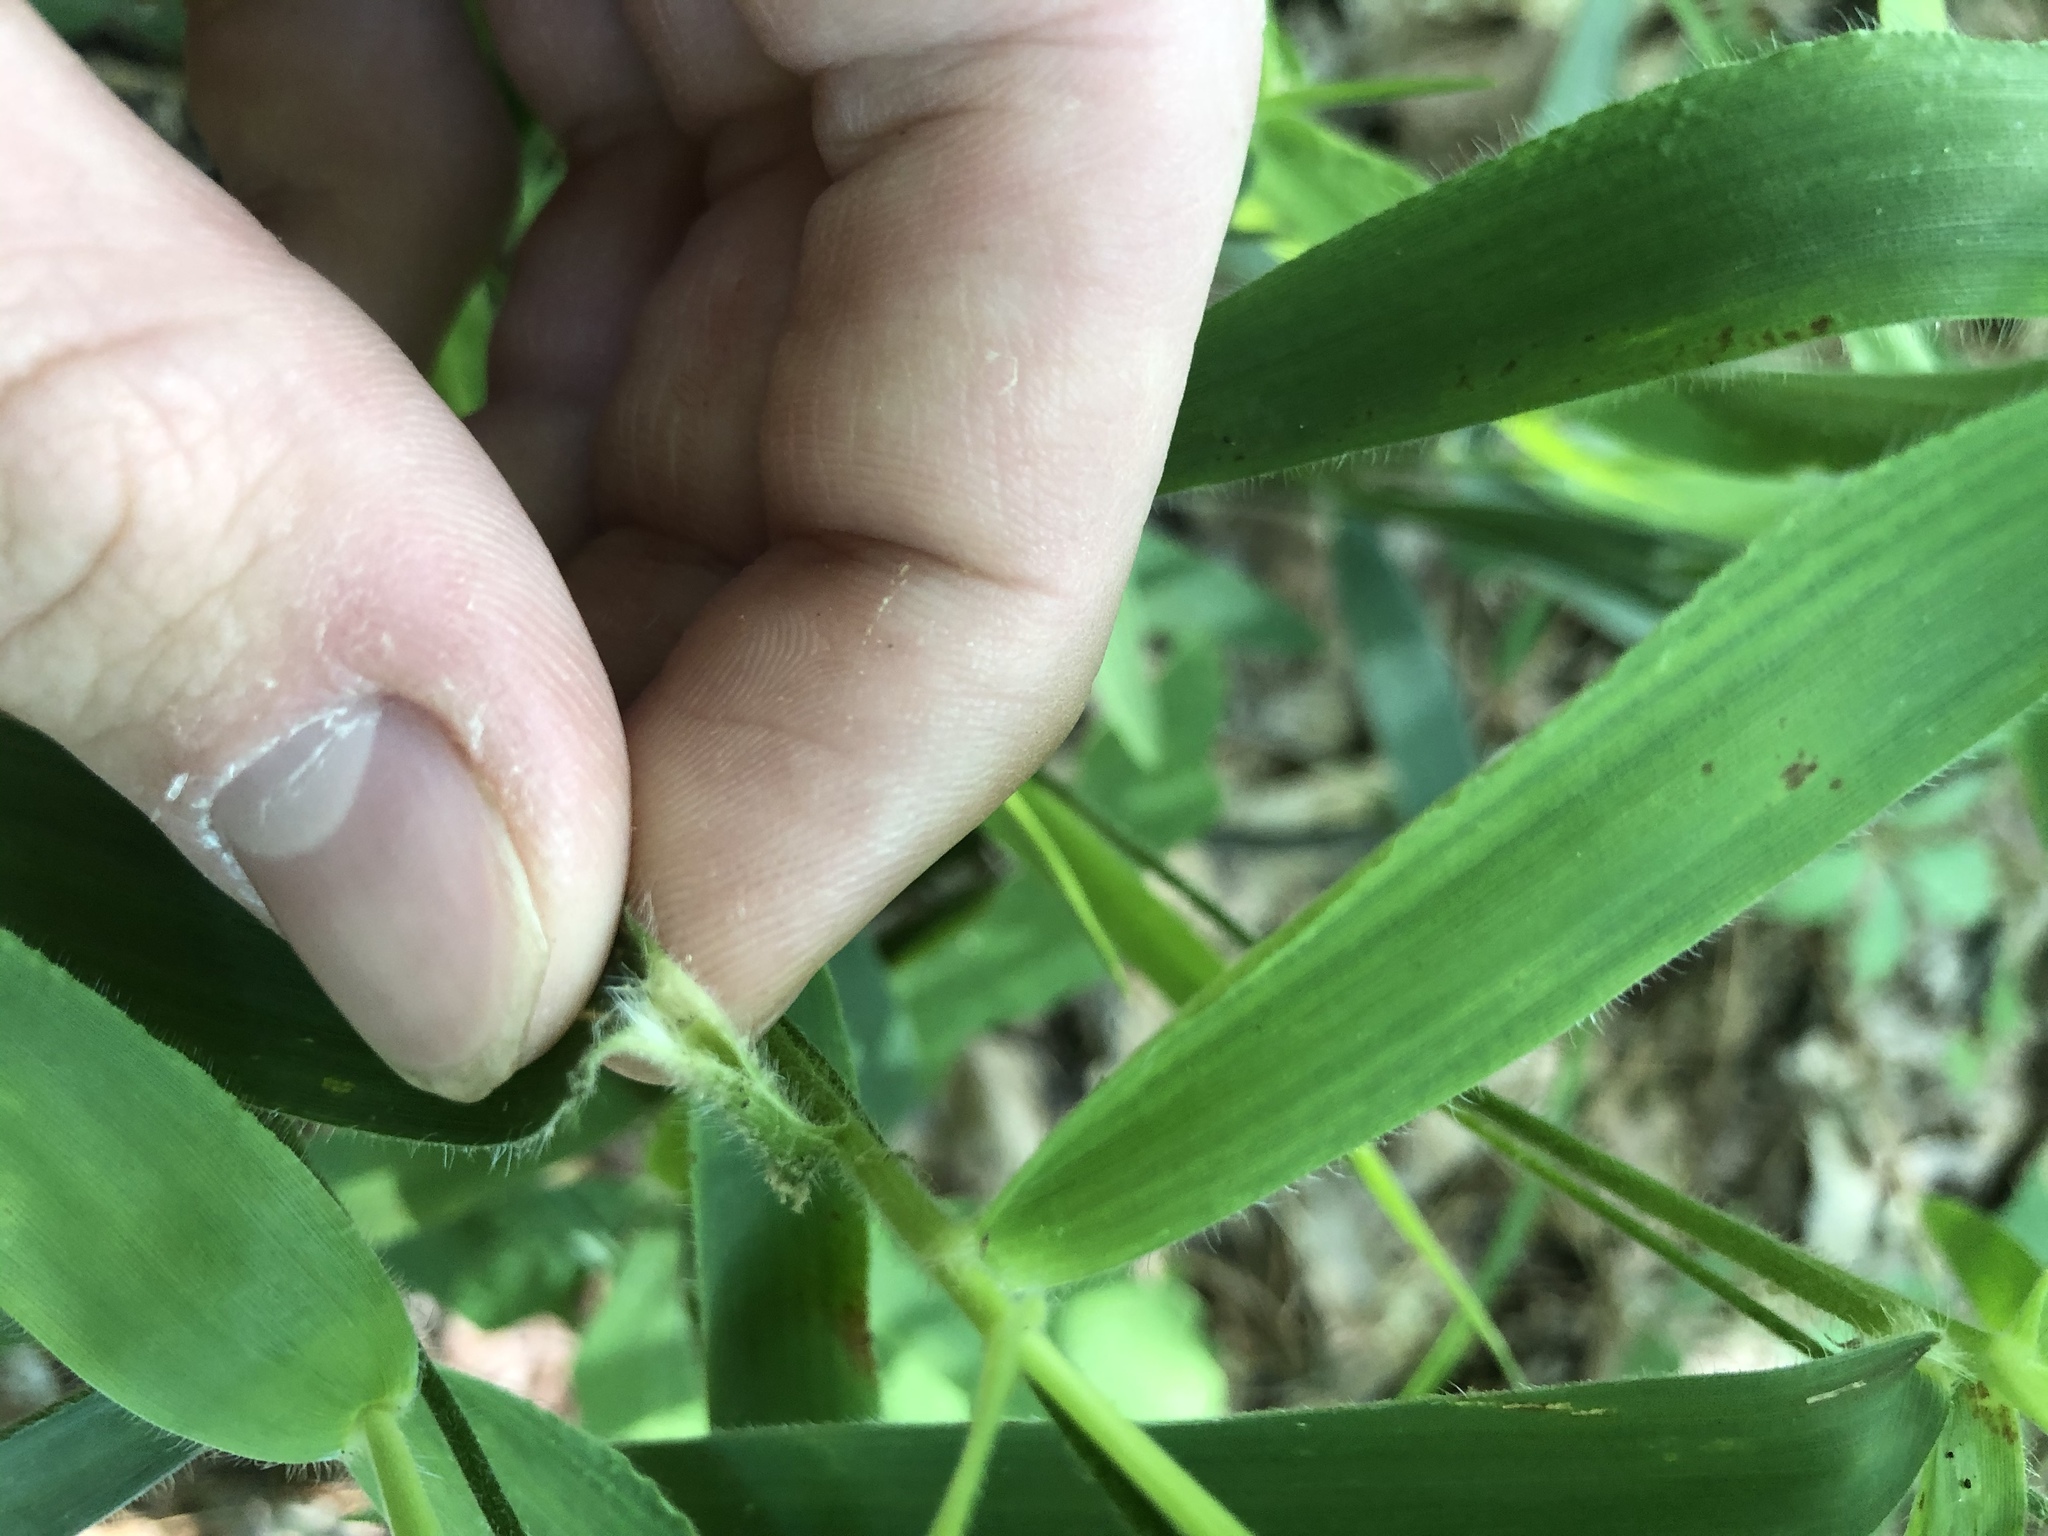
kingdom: Plantae
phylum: Tracheophyta
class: Liliopsida
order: Poales
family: Poaceae
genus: Dichanthelium
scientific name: Dichanthelium ravenelii
